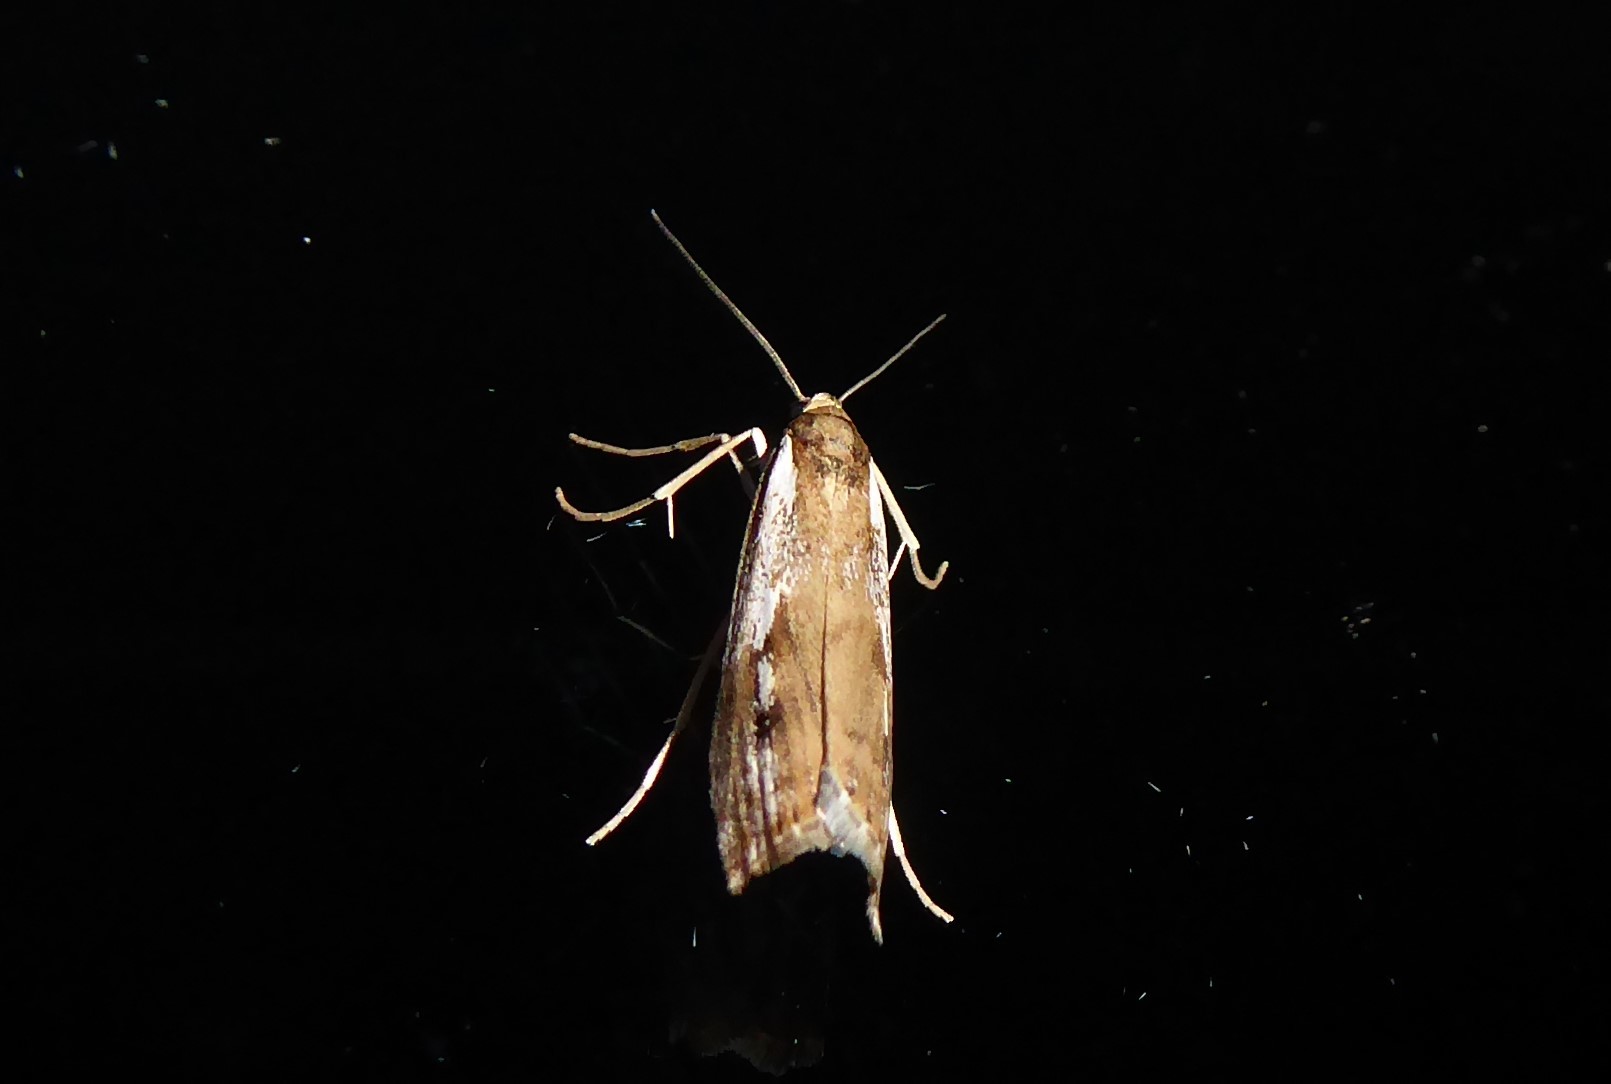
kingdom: Animalia
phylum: Arthropoda
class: Insecta
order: Lepidoptera
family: Crambidae
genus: Orocrambus
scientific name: Orocrambus vulgaris
